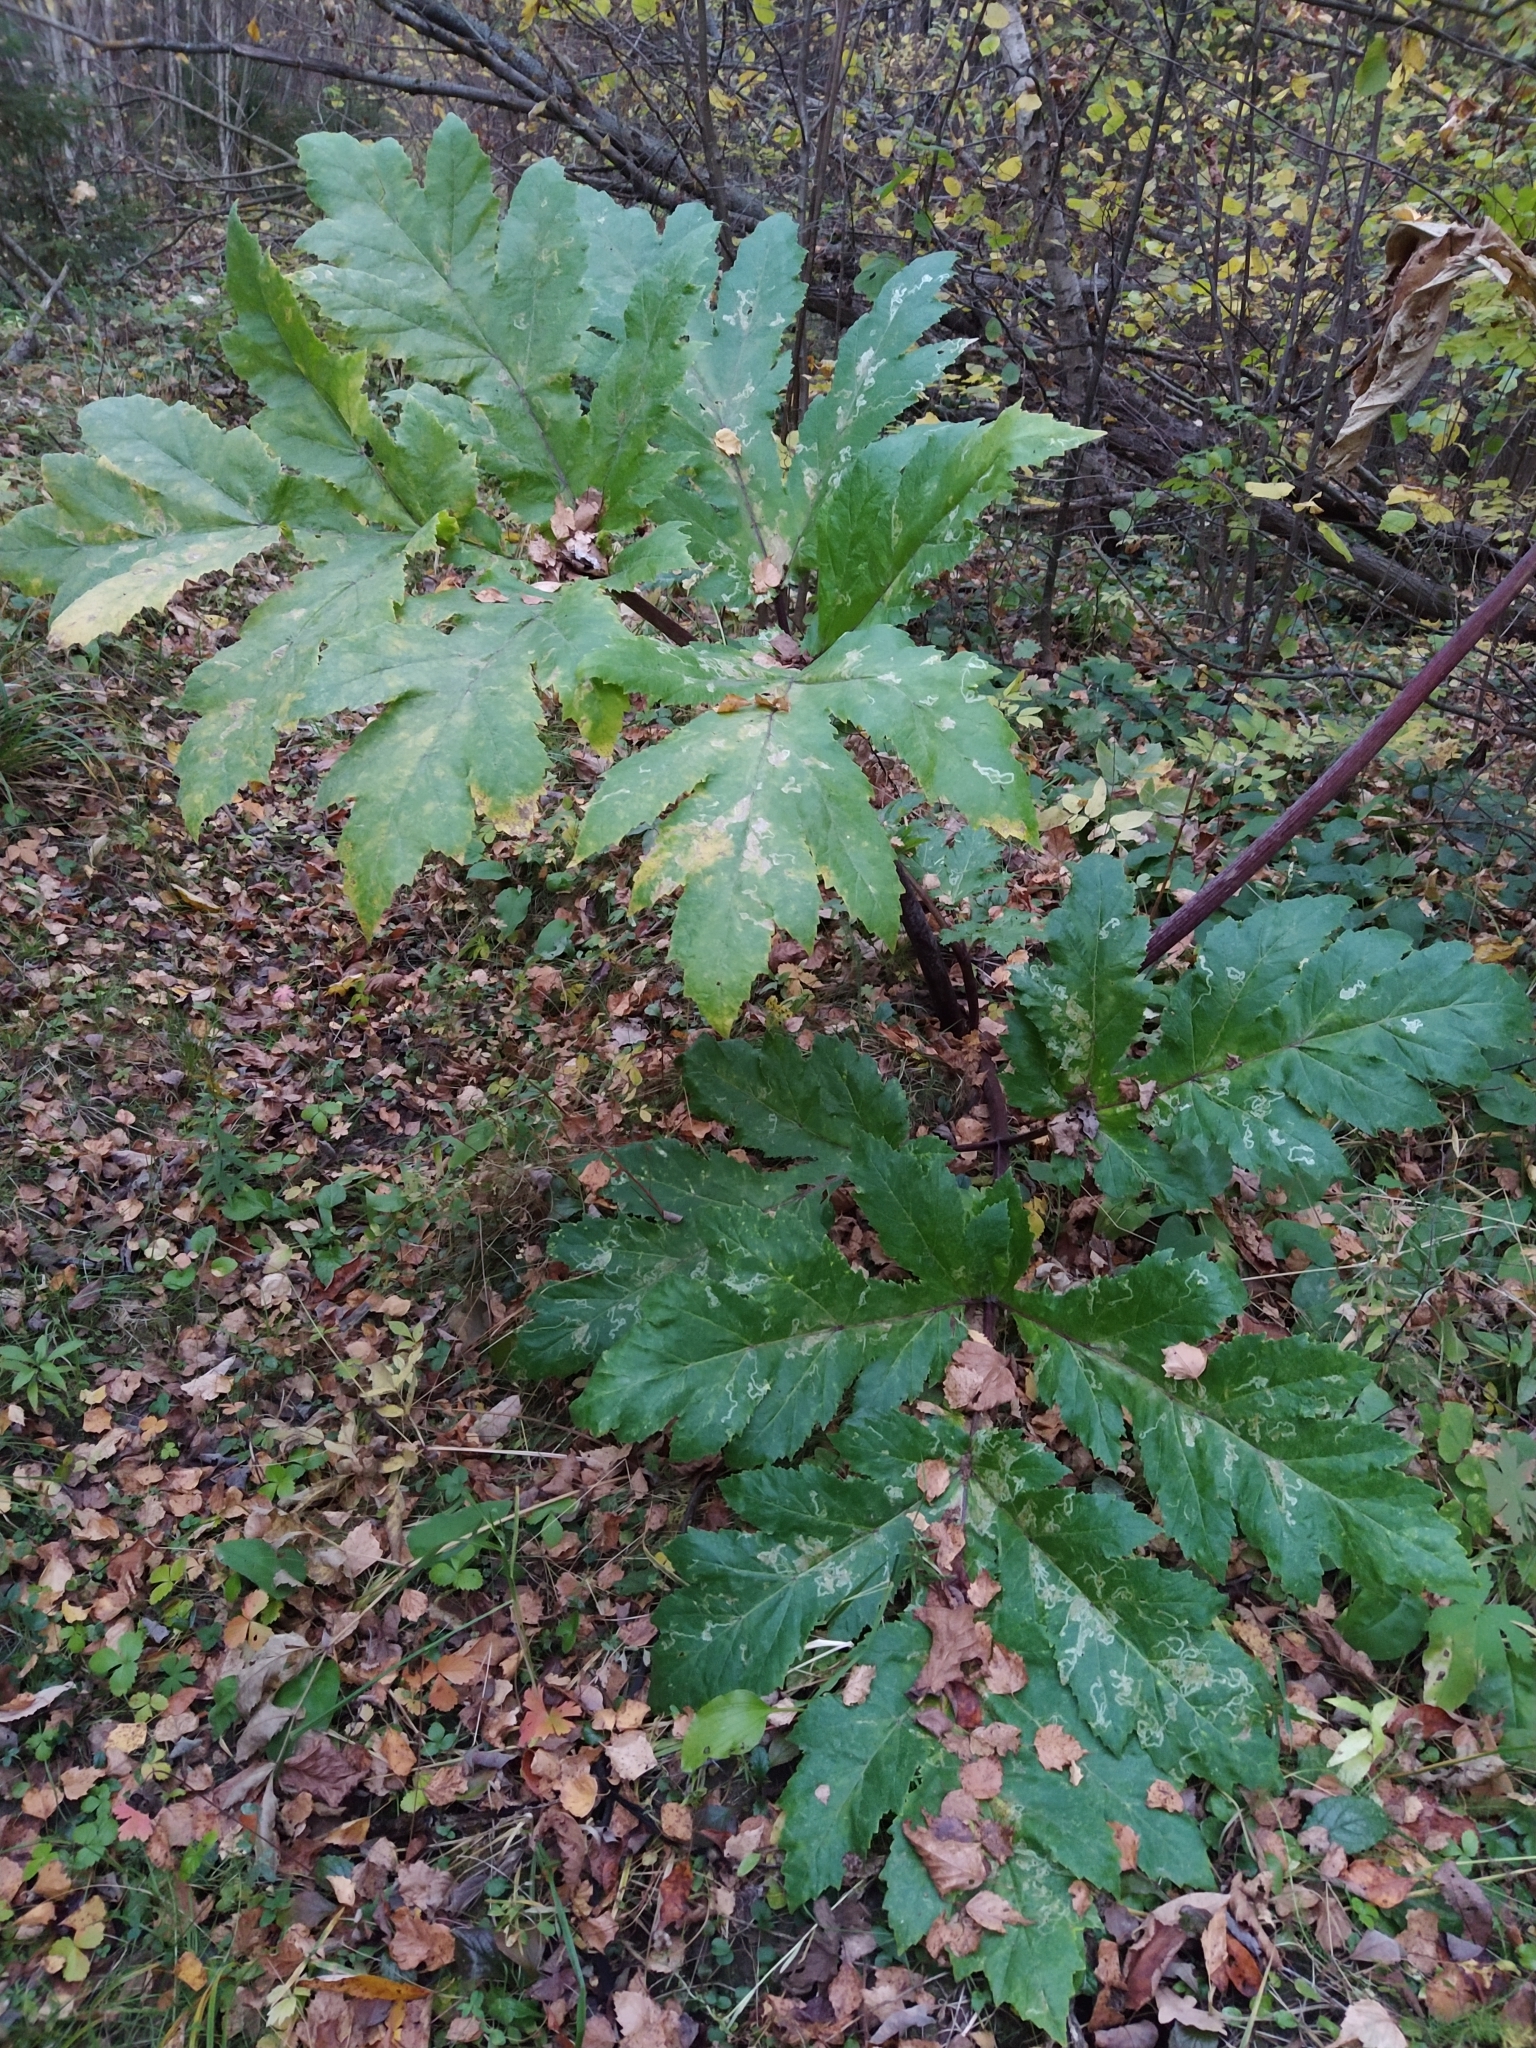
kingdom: Plantae
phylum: Tracheophyta
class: Magnoliopsida
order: Apiales
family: Apiaceae
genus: Heracleum
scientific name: Heracleum sosnowskyi
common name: Sosnowsky's hogweed
